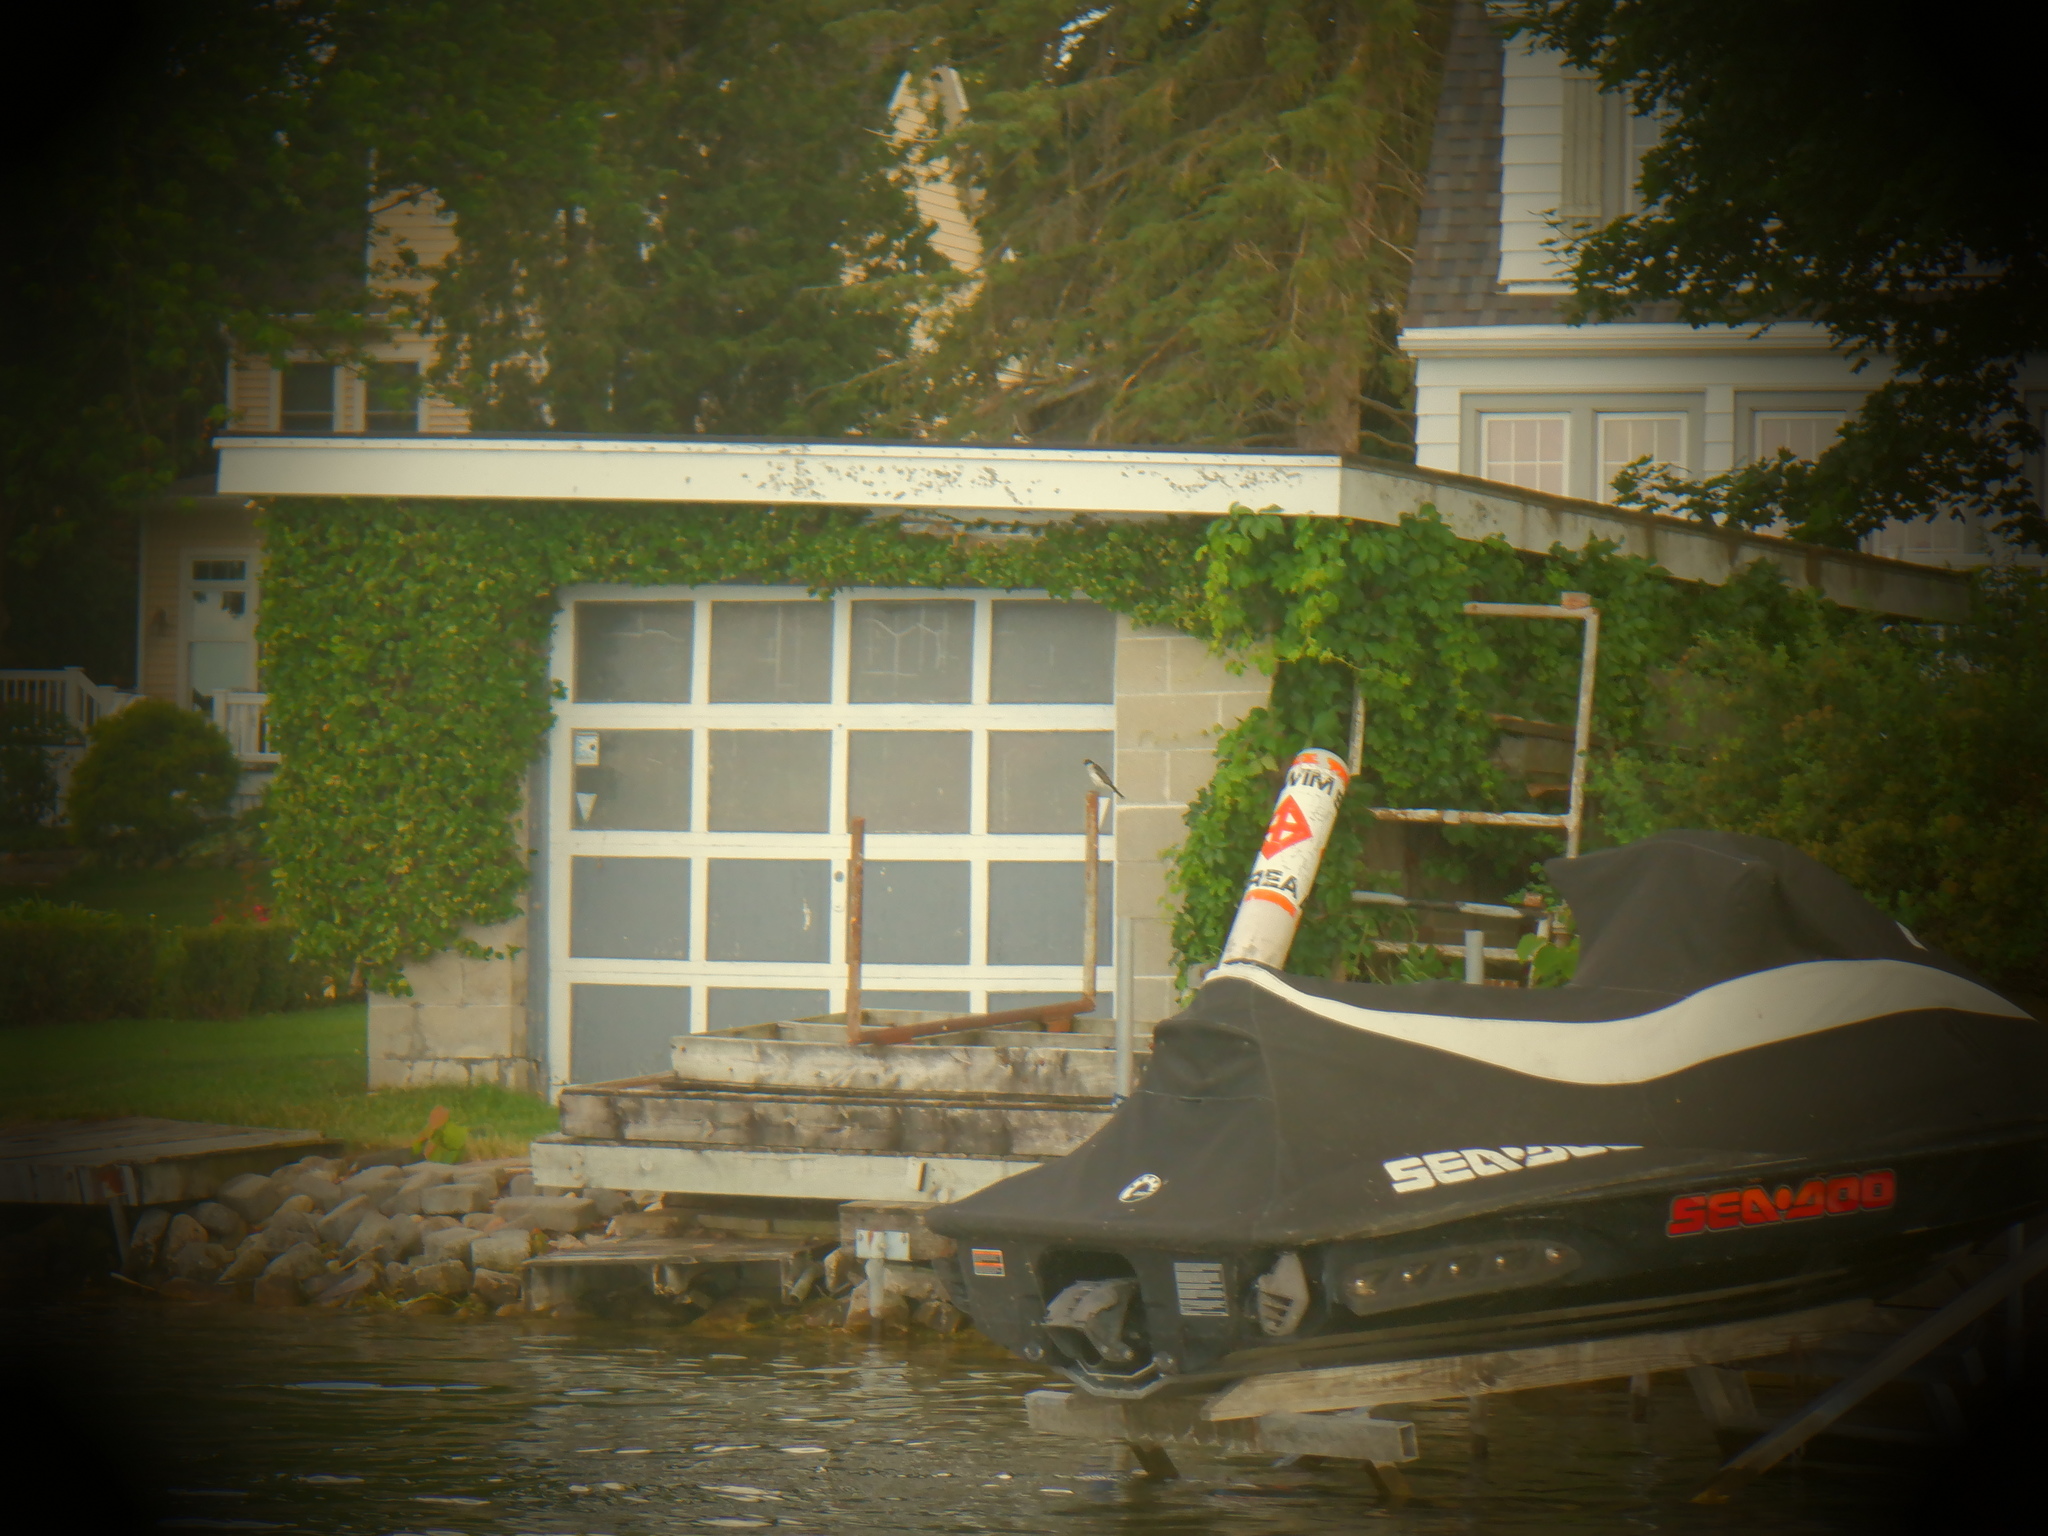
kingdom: Animalia
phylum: Chordata
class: Aves
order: Passeriformes
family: Tyrannidae
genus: Tyrannus
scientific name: Tyrannus tyrannus
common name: Eastern kingbird
